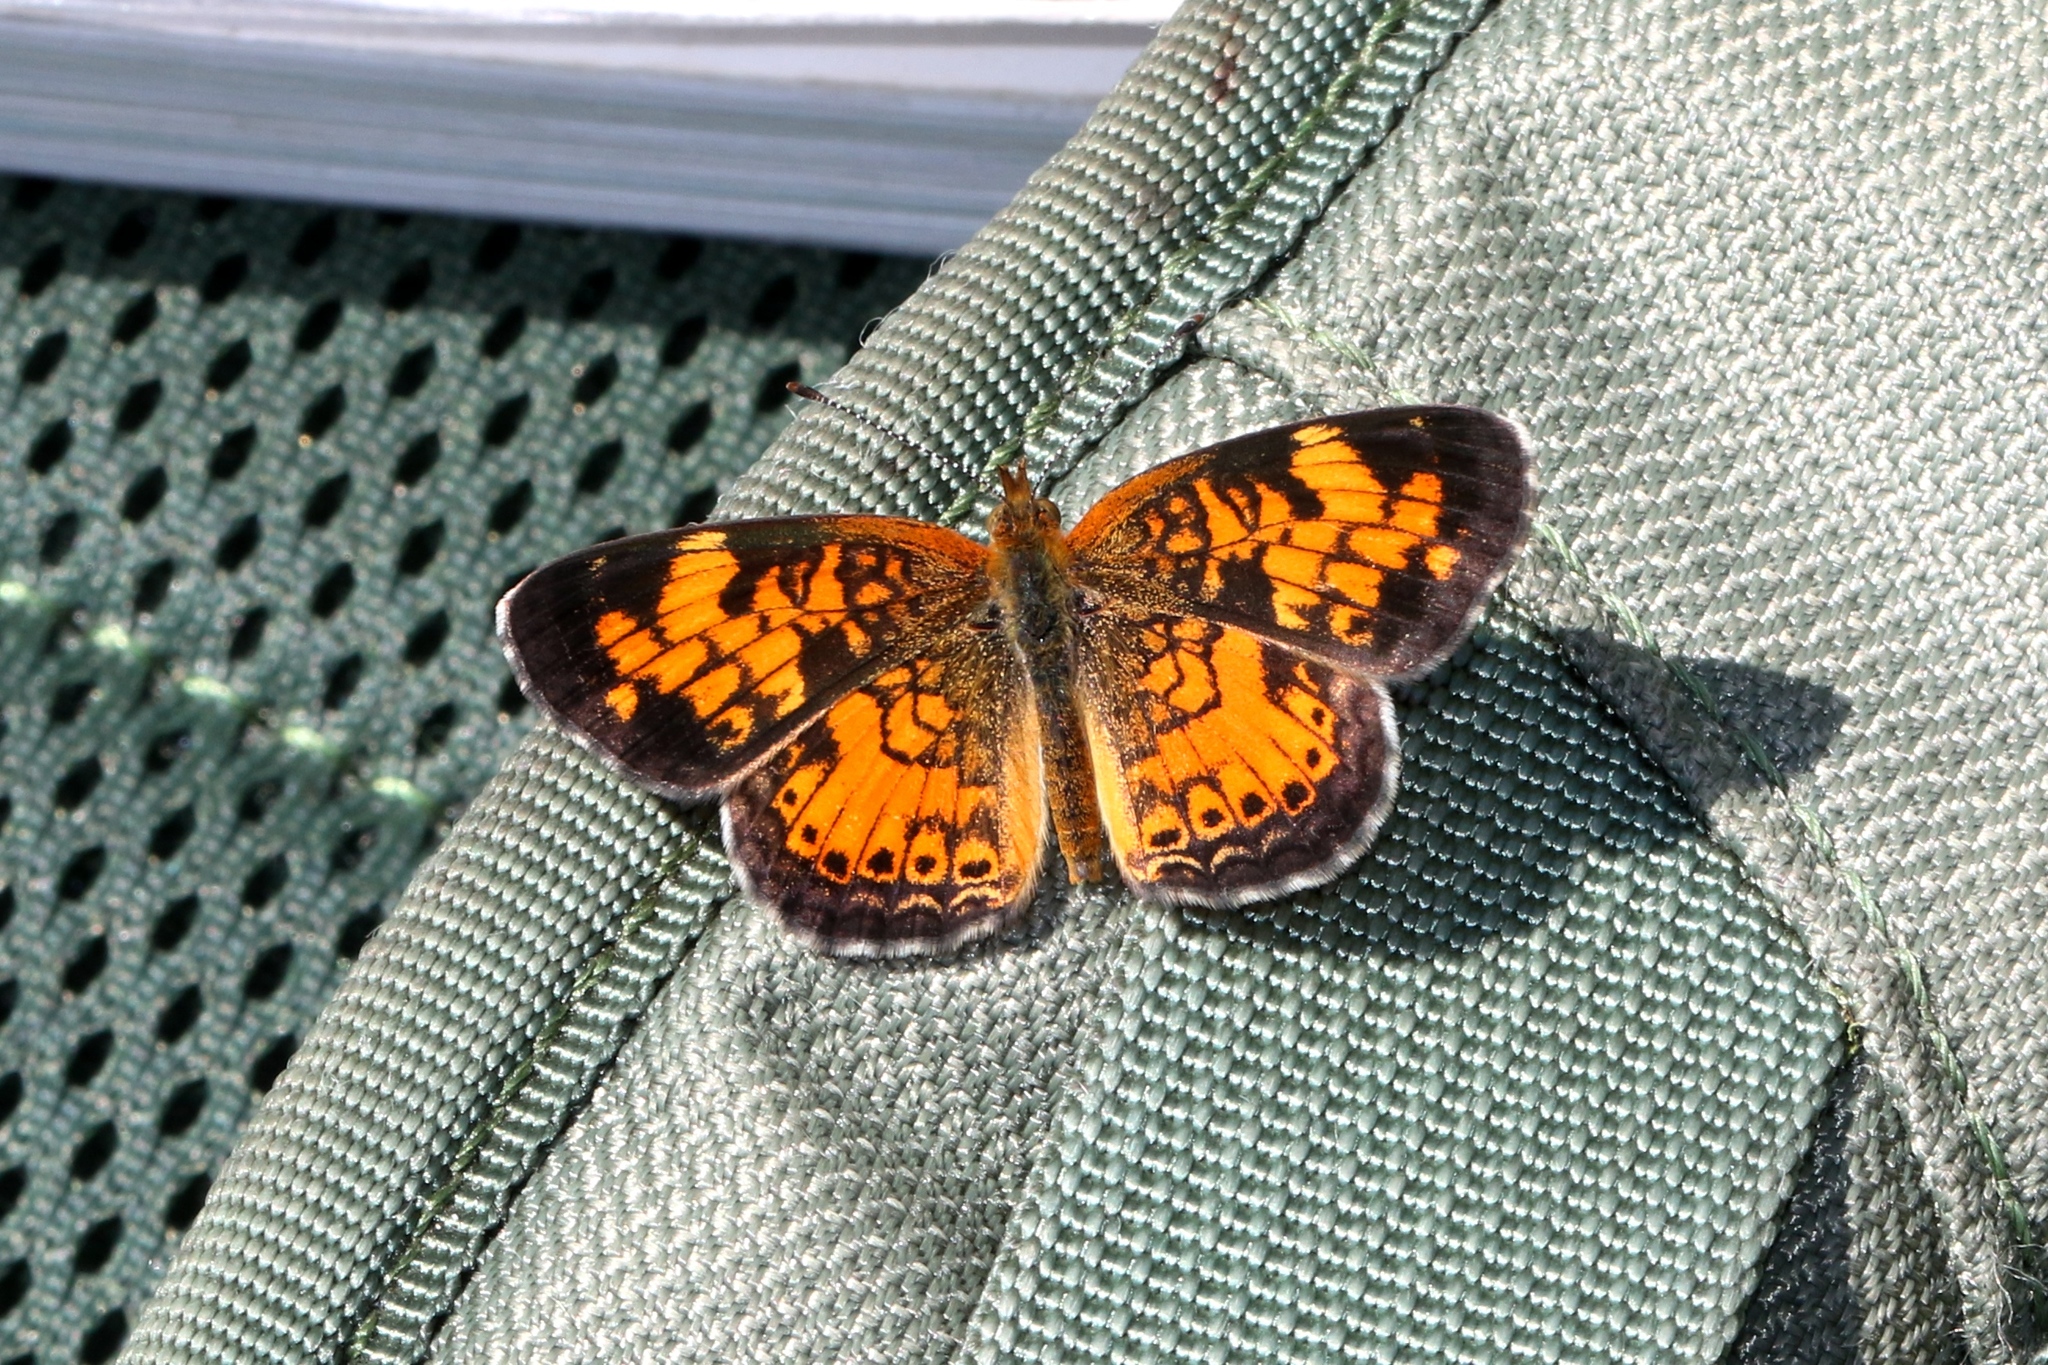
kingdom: Animalia
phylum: Arthropoda
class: Insecta
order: Lepidoptera
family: Nymphalidae
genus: Phyciodes
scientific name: Phyciodes tharos
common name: Pearl crescent
